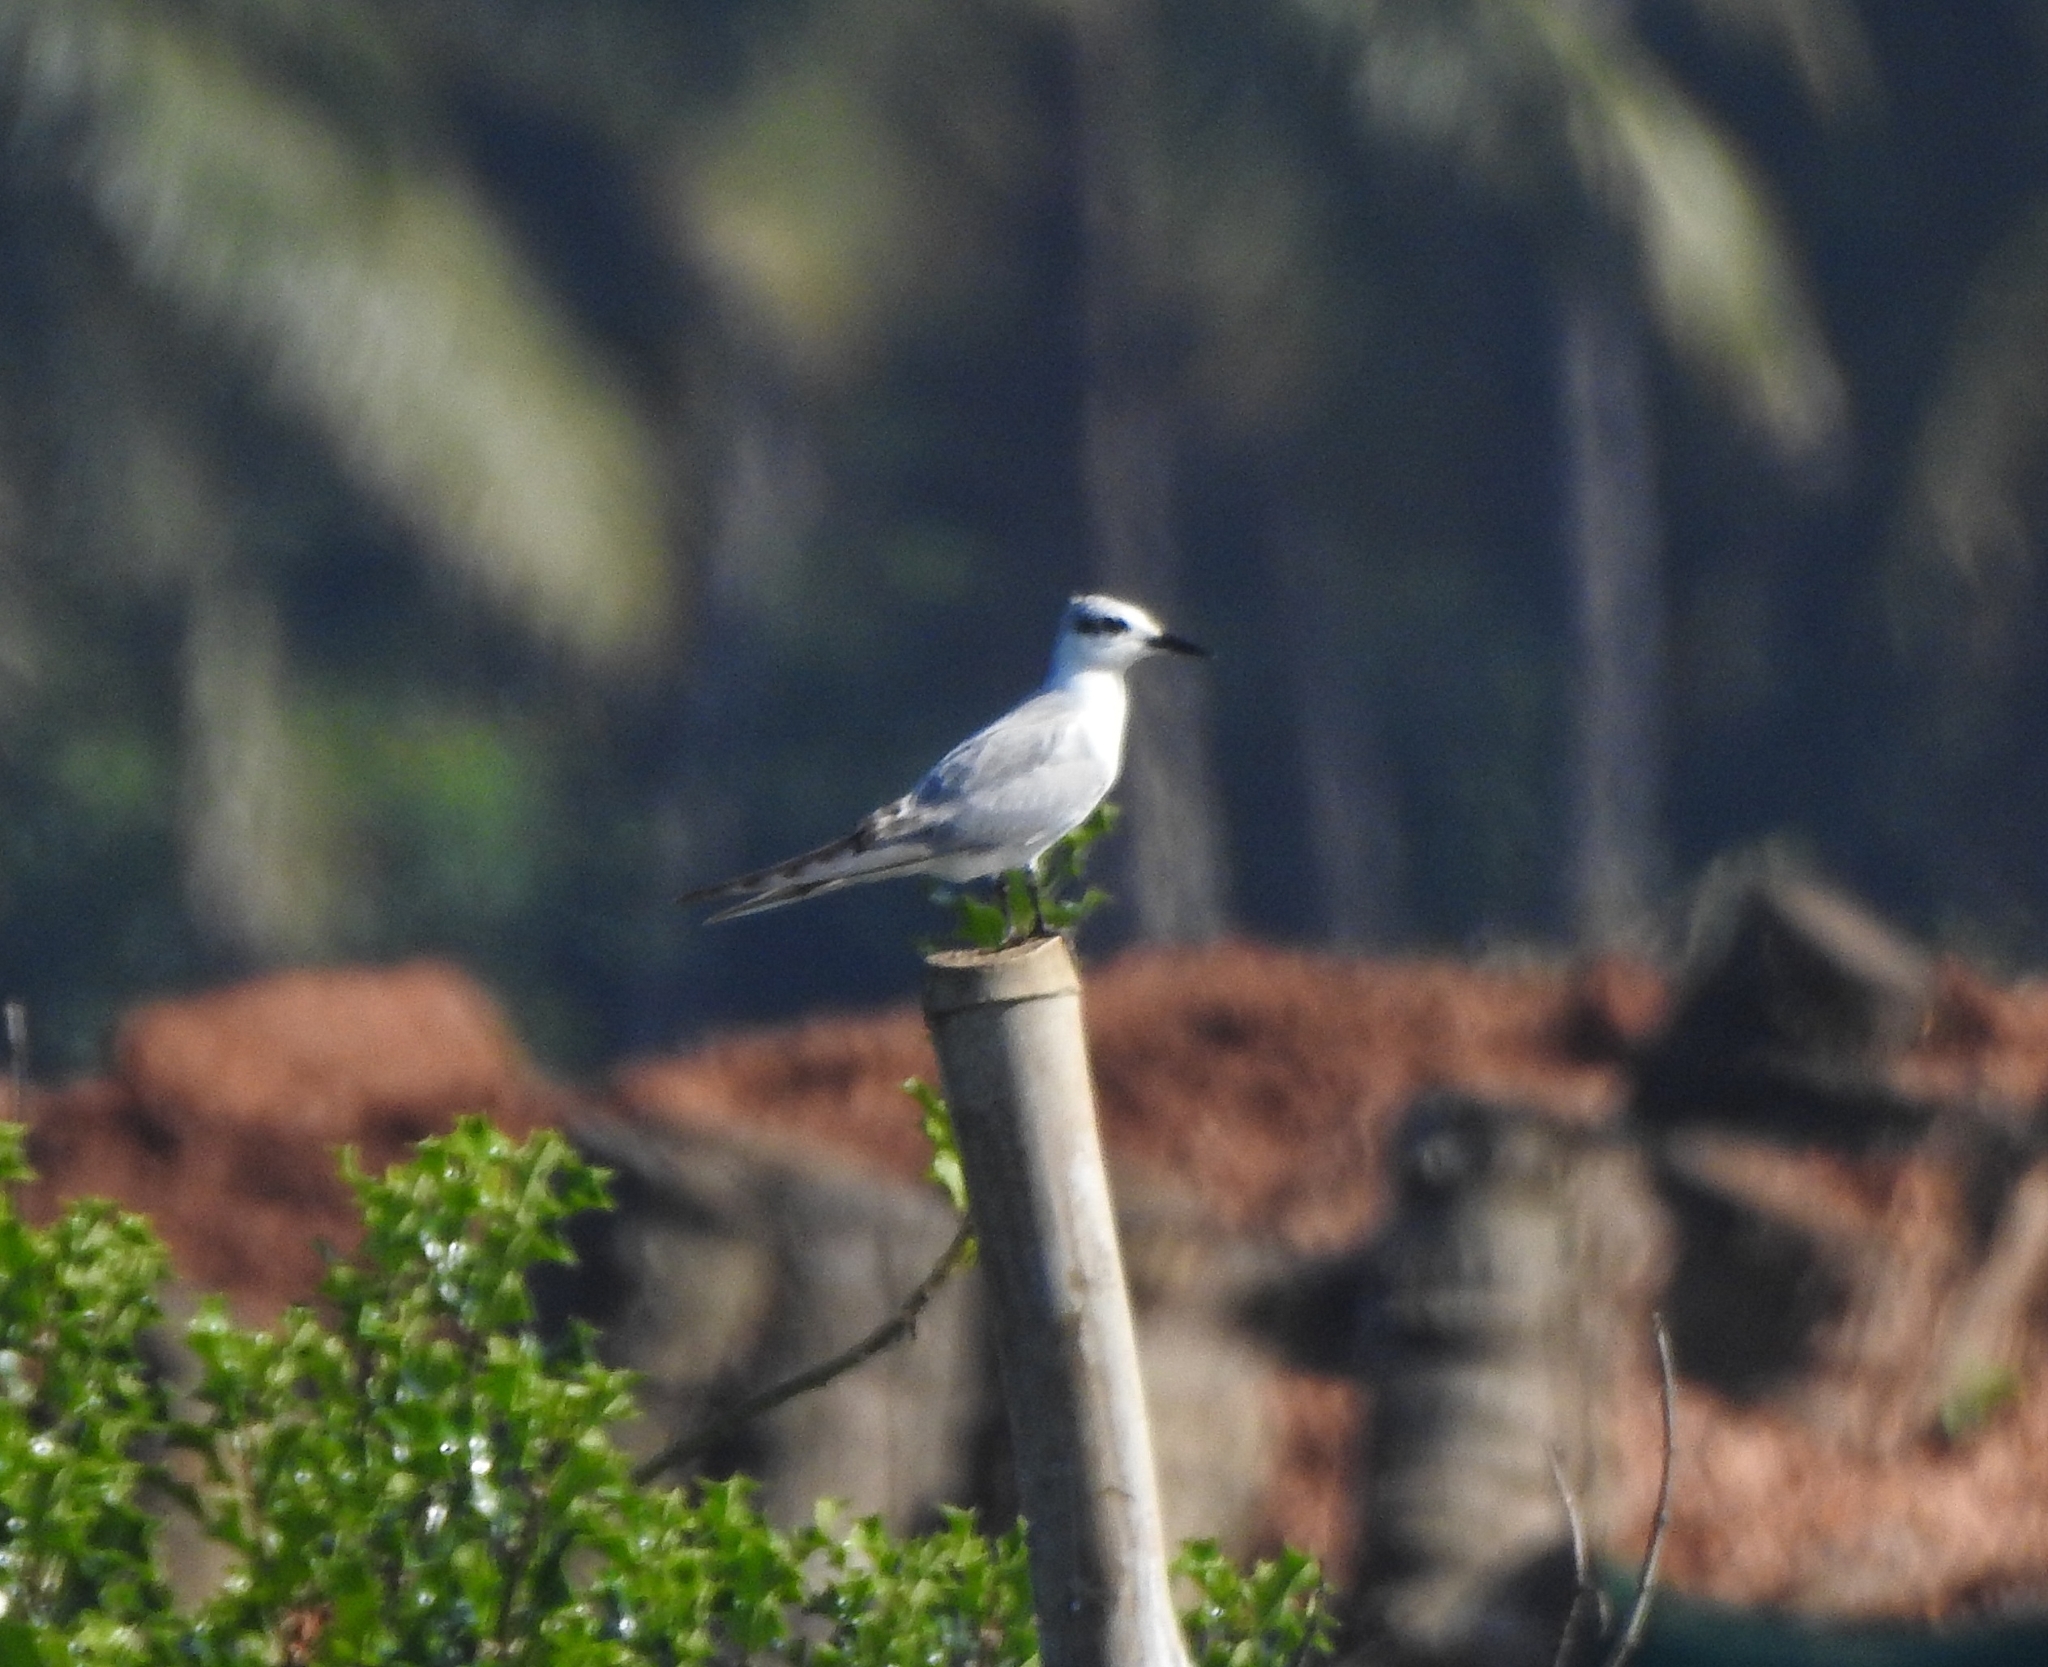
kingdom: Animalia
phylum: Chordata
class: Aves
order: Charadriiformes
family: Laridae
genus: Chlidonias
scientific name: Chlidonias hybrida
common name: Whiskered tern
